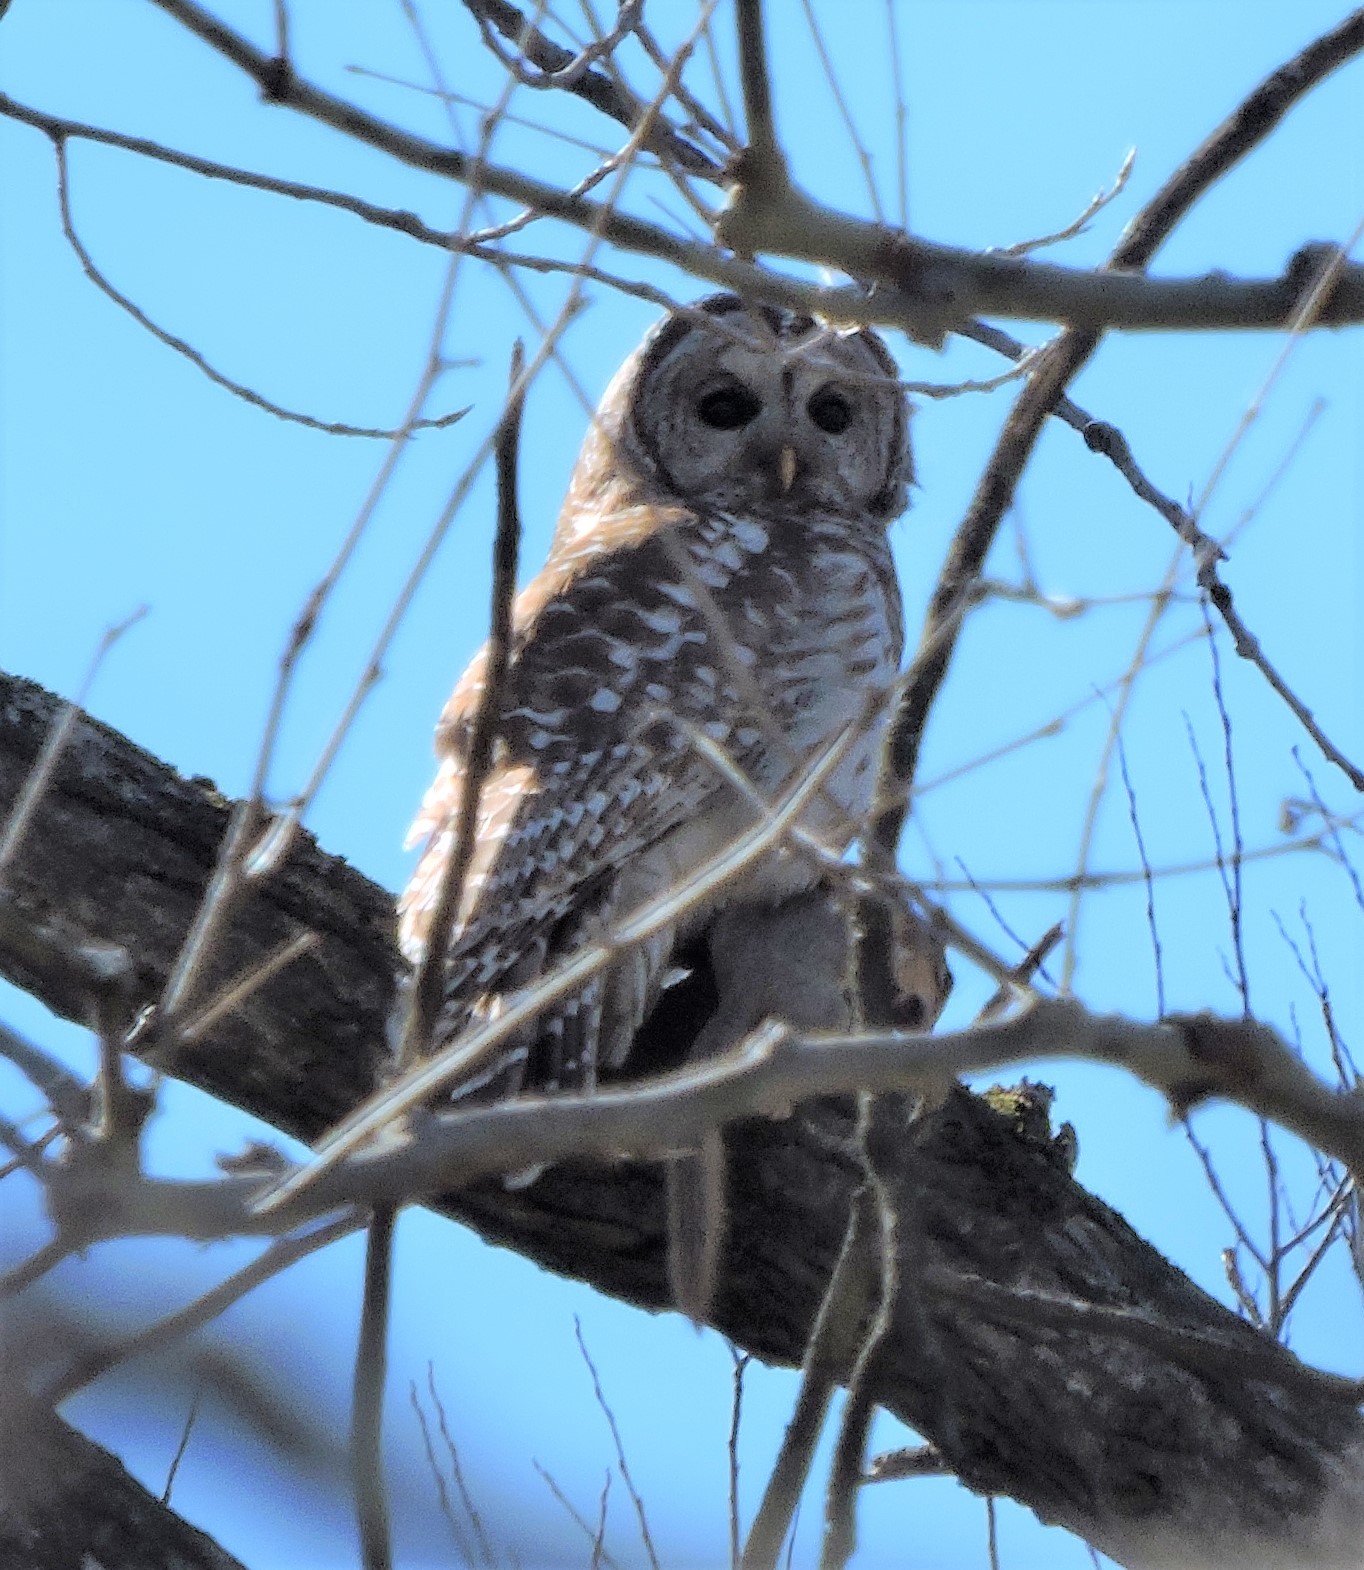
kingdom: Animalia
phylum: Chordata
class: Aves
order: Strigiformes
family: Strigidae
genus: Strix
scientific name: Strix varia
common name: Barred owl
